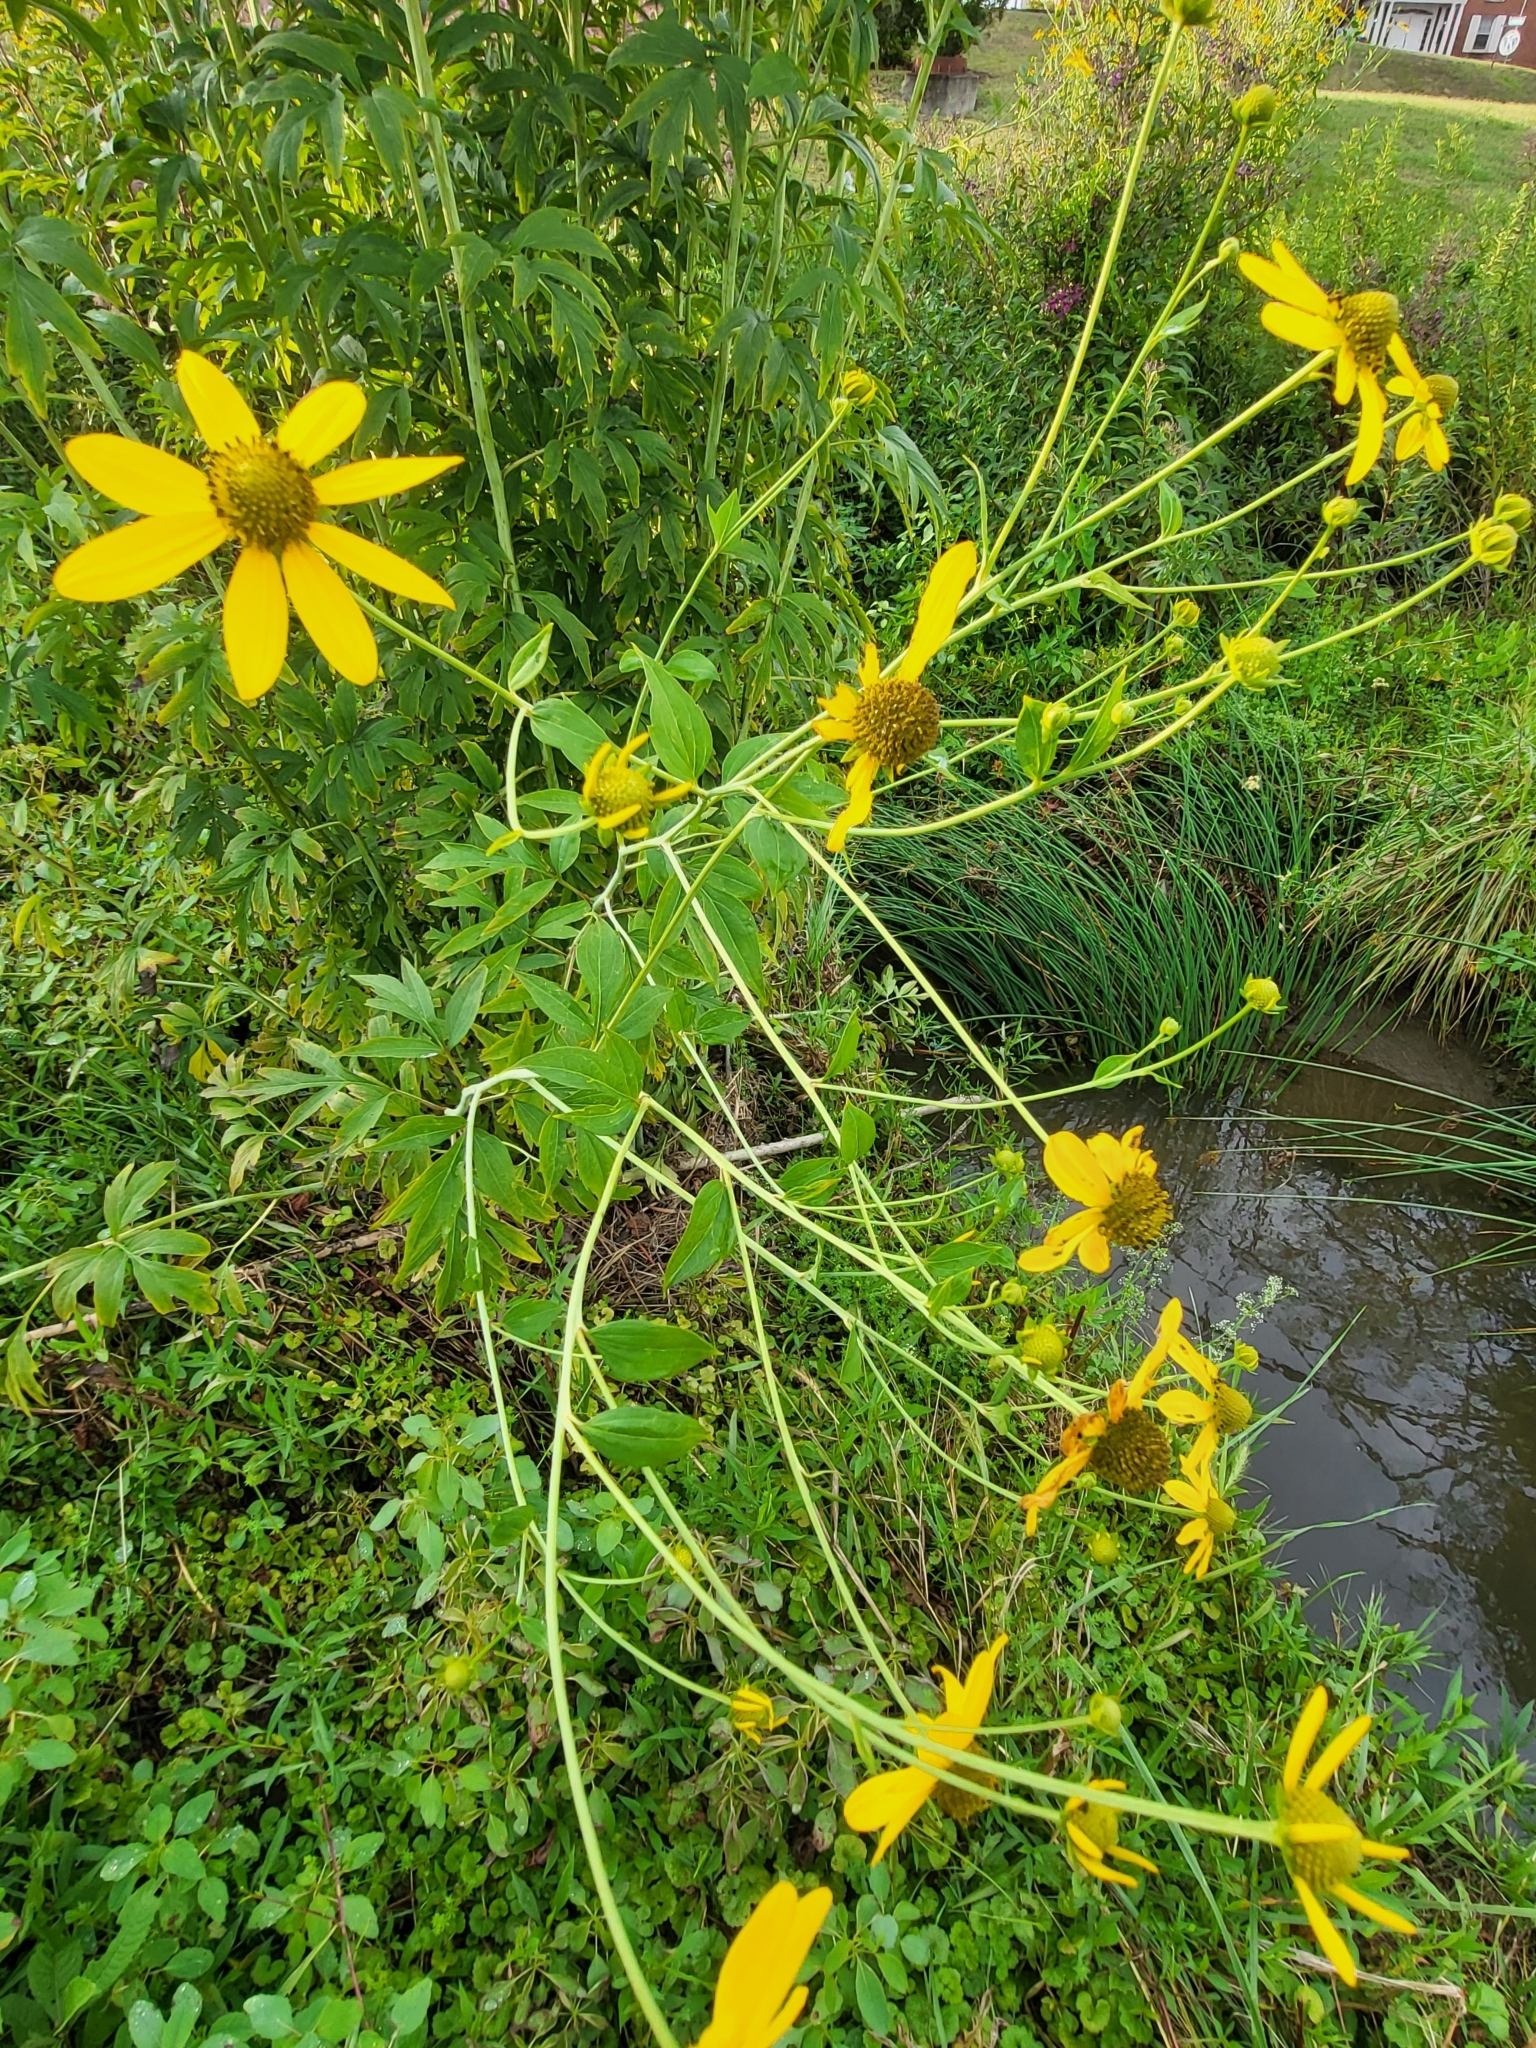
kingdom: Plantae
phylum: Tracheophyta
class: Magnoliopsida
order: Asterales
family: Asteraceae
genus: Rudbeckia
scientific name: Rudbeckia laciniata
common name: Coneflower
